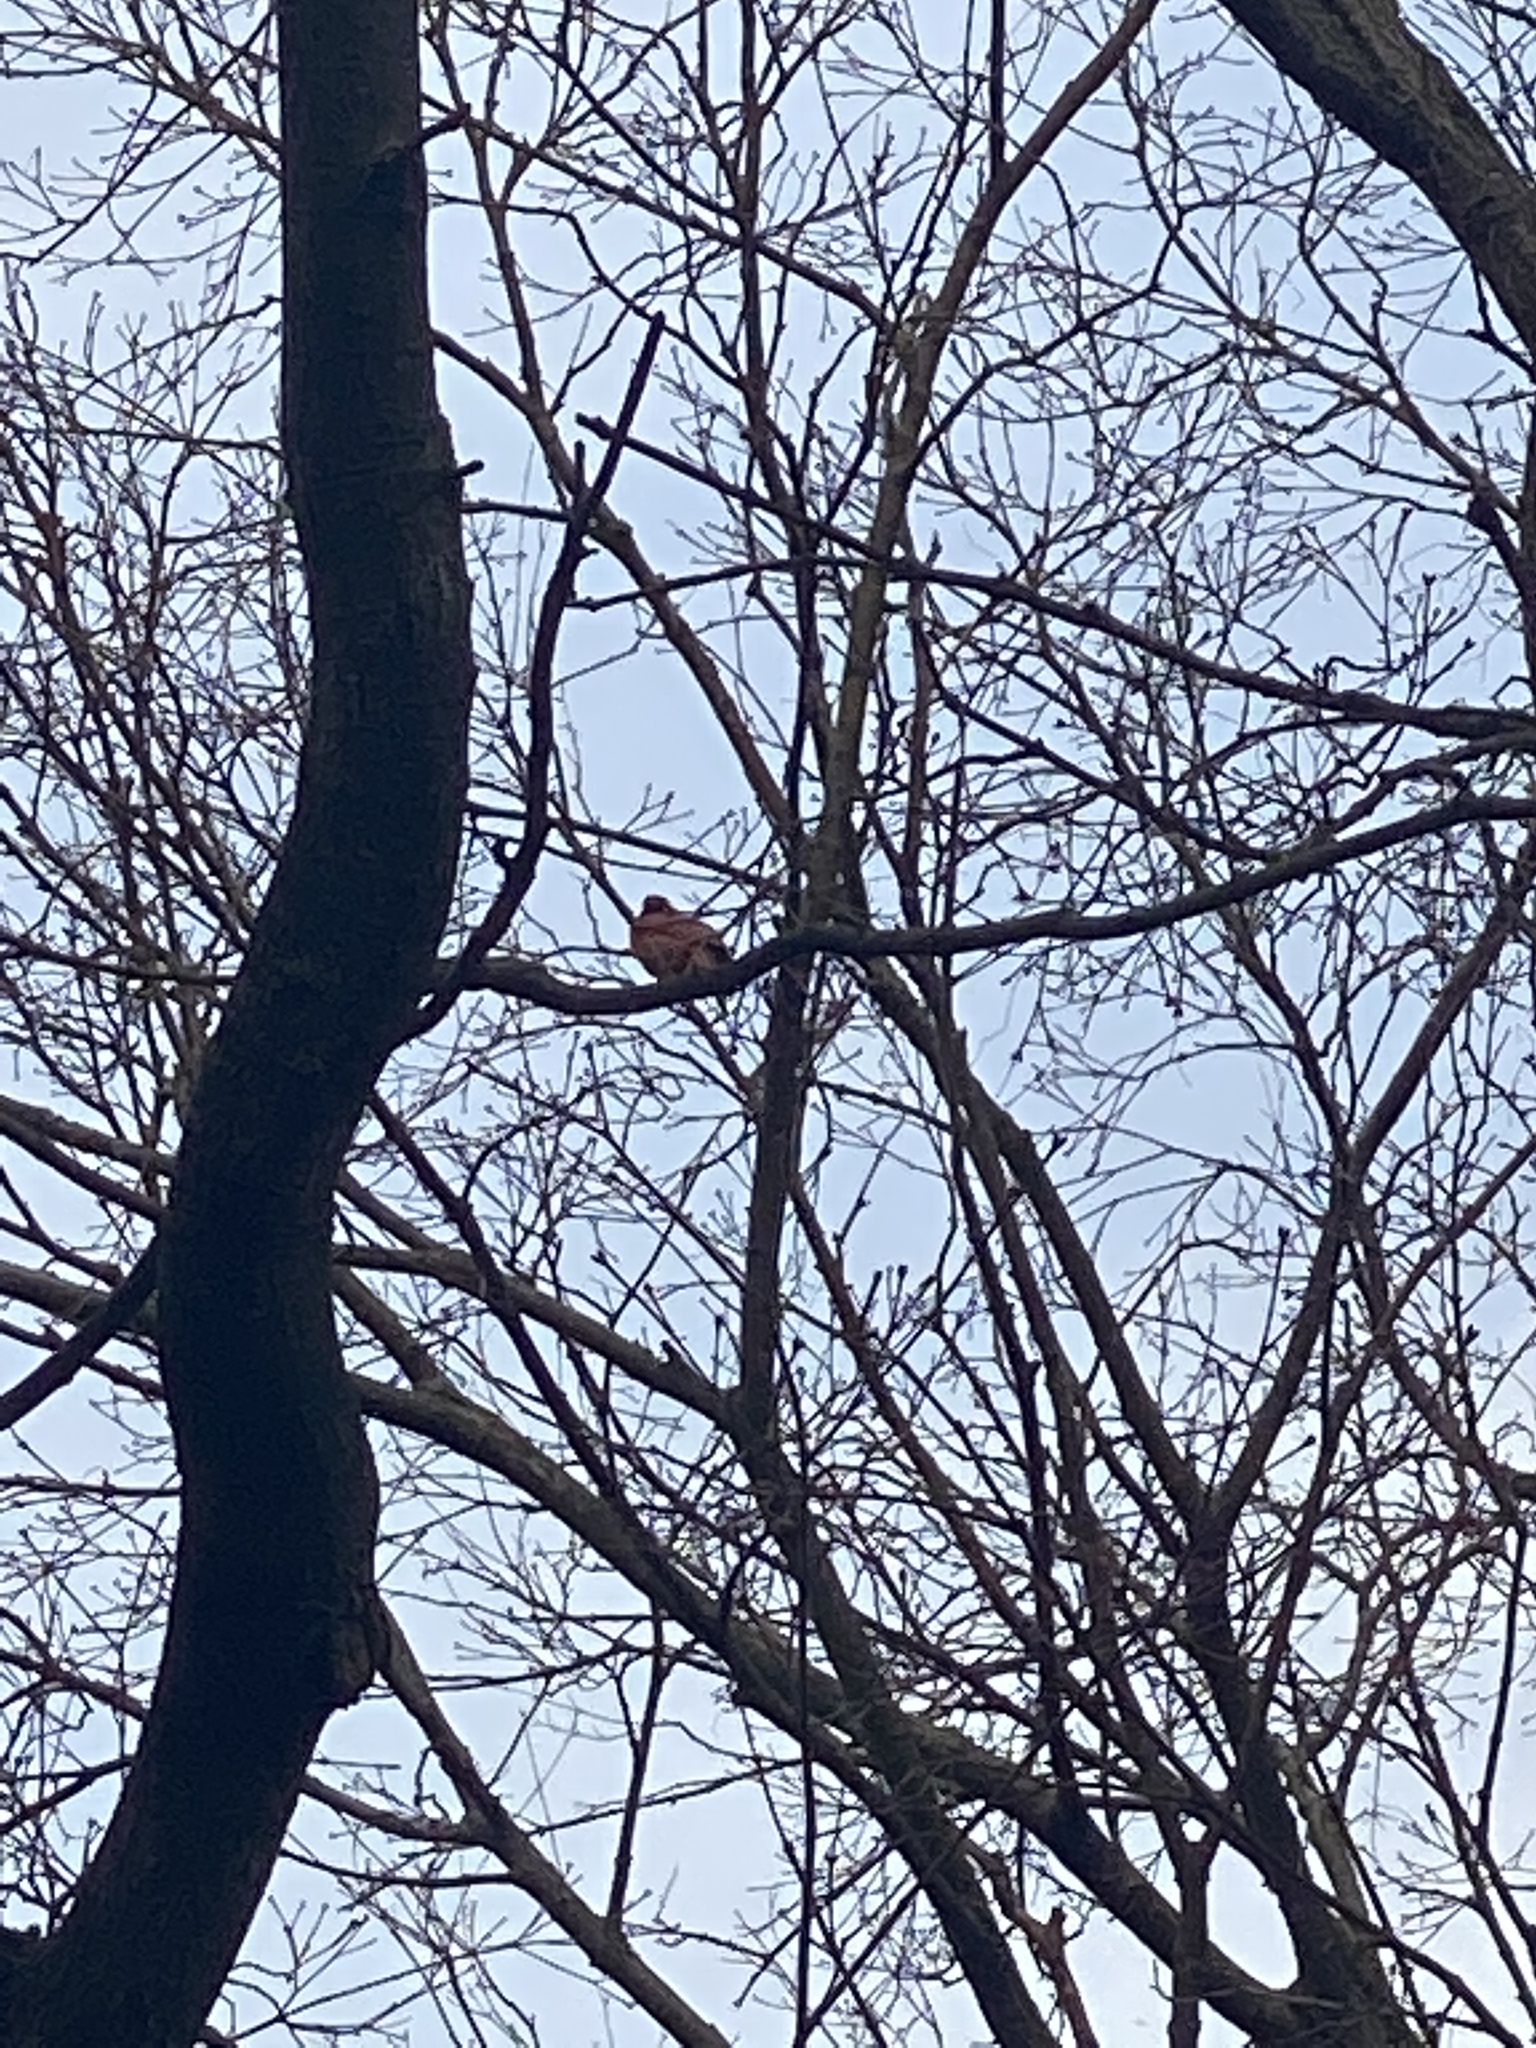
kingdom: Animalia
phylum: Chordata
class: Aves
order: Passeriformes
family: Cardinalidae
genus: Cardinalis
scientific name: Cardinalis cardinalis
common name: Northern cardinal
